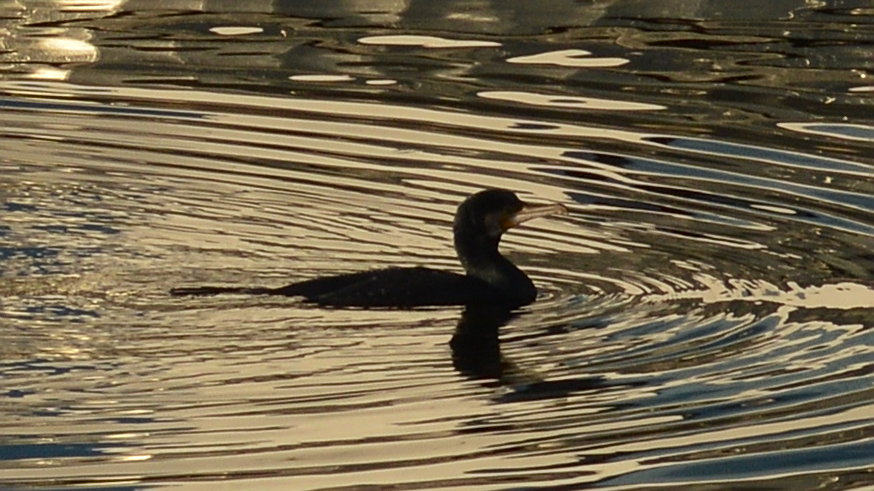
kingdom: Animalia
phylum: Chordata
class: Aves
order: Suliformes
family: Phalacrocoracidae
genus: Phalacrocorax
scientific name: Phalacrocorax carbo
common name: Great cormorant
